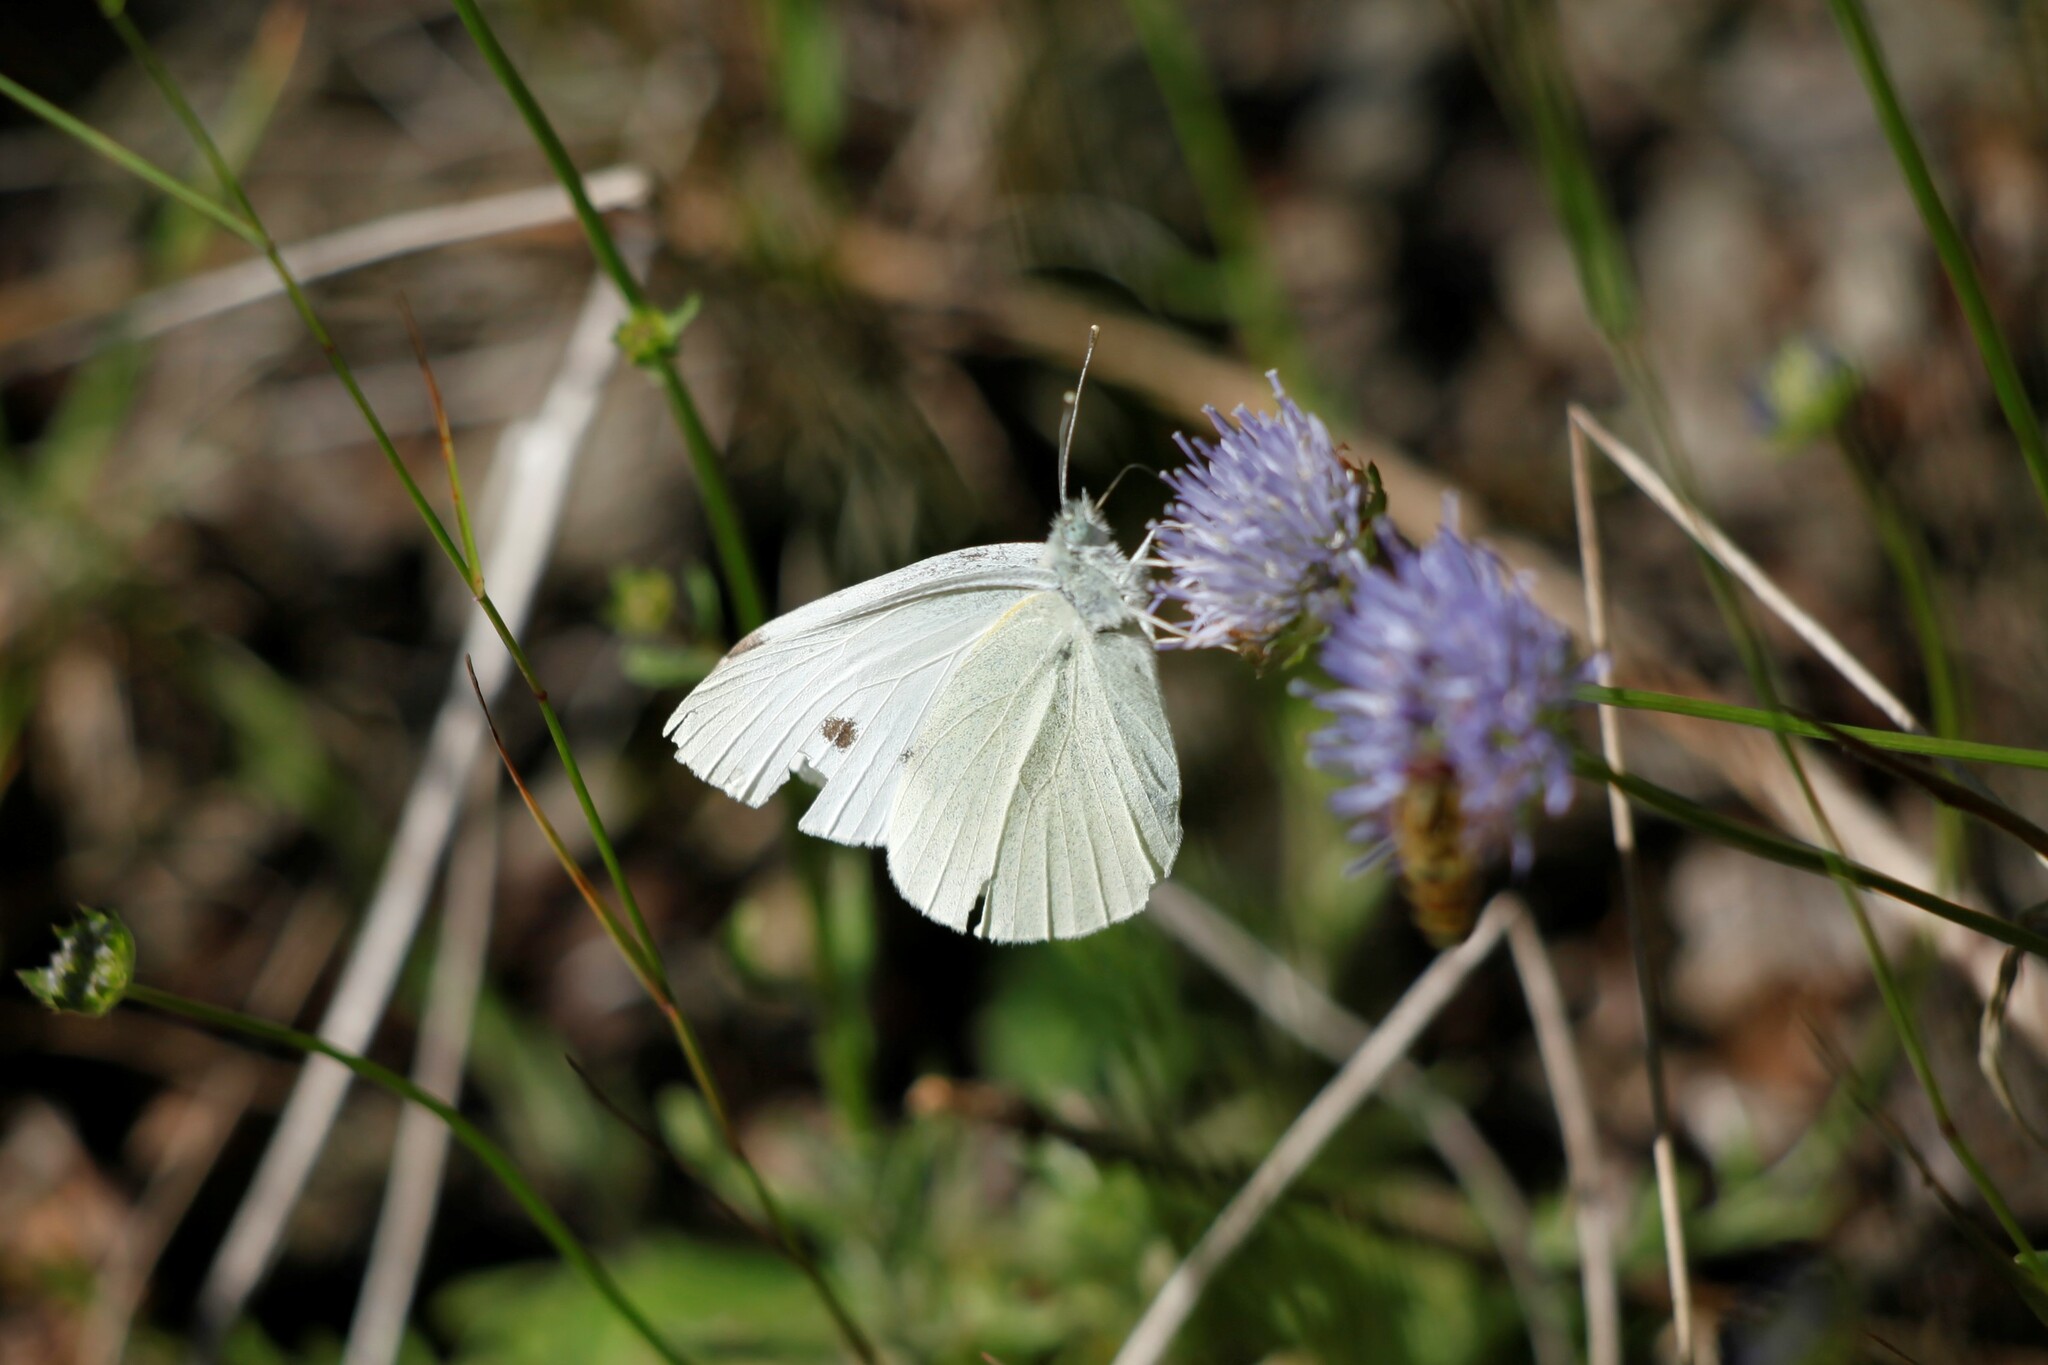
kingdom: Animalia
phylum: Arthropoda
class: Insecta
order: Lepidoptera
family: Pieridae
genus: Pieris
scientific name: Pieris rapae
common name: Small white
